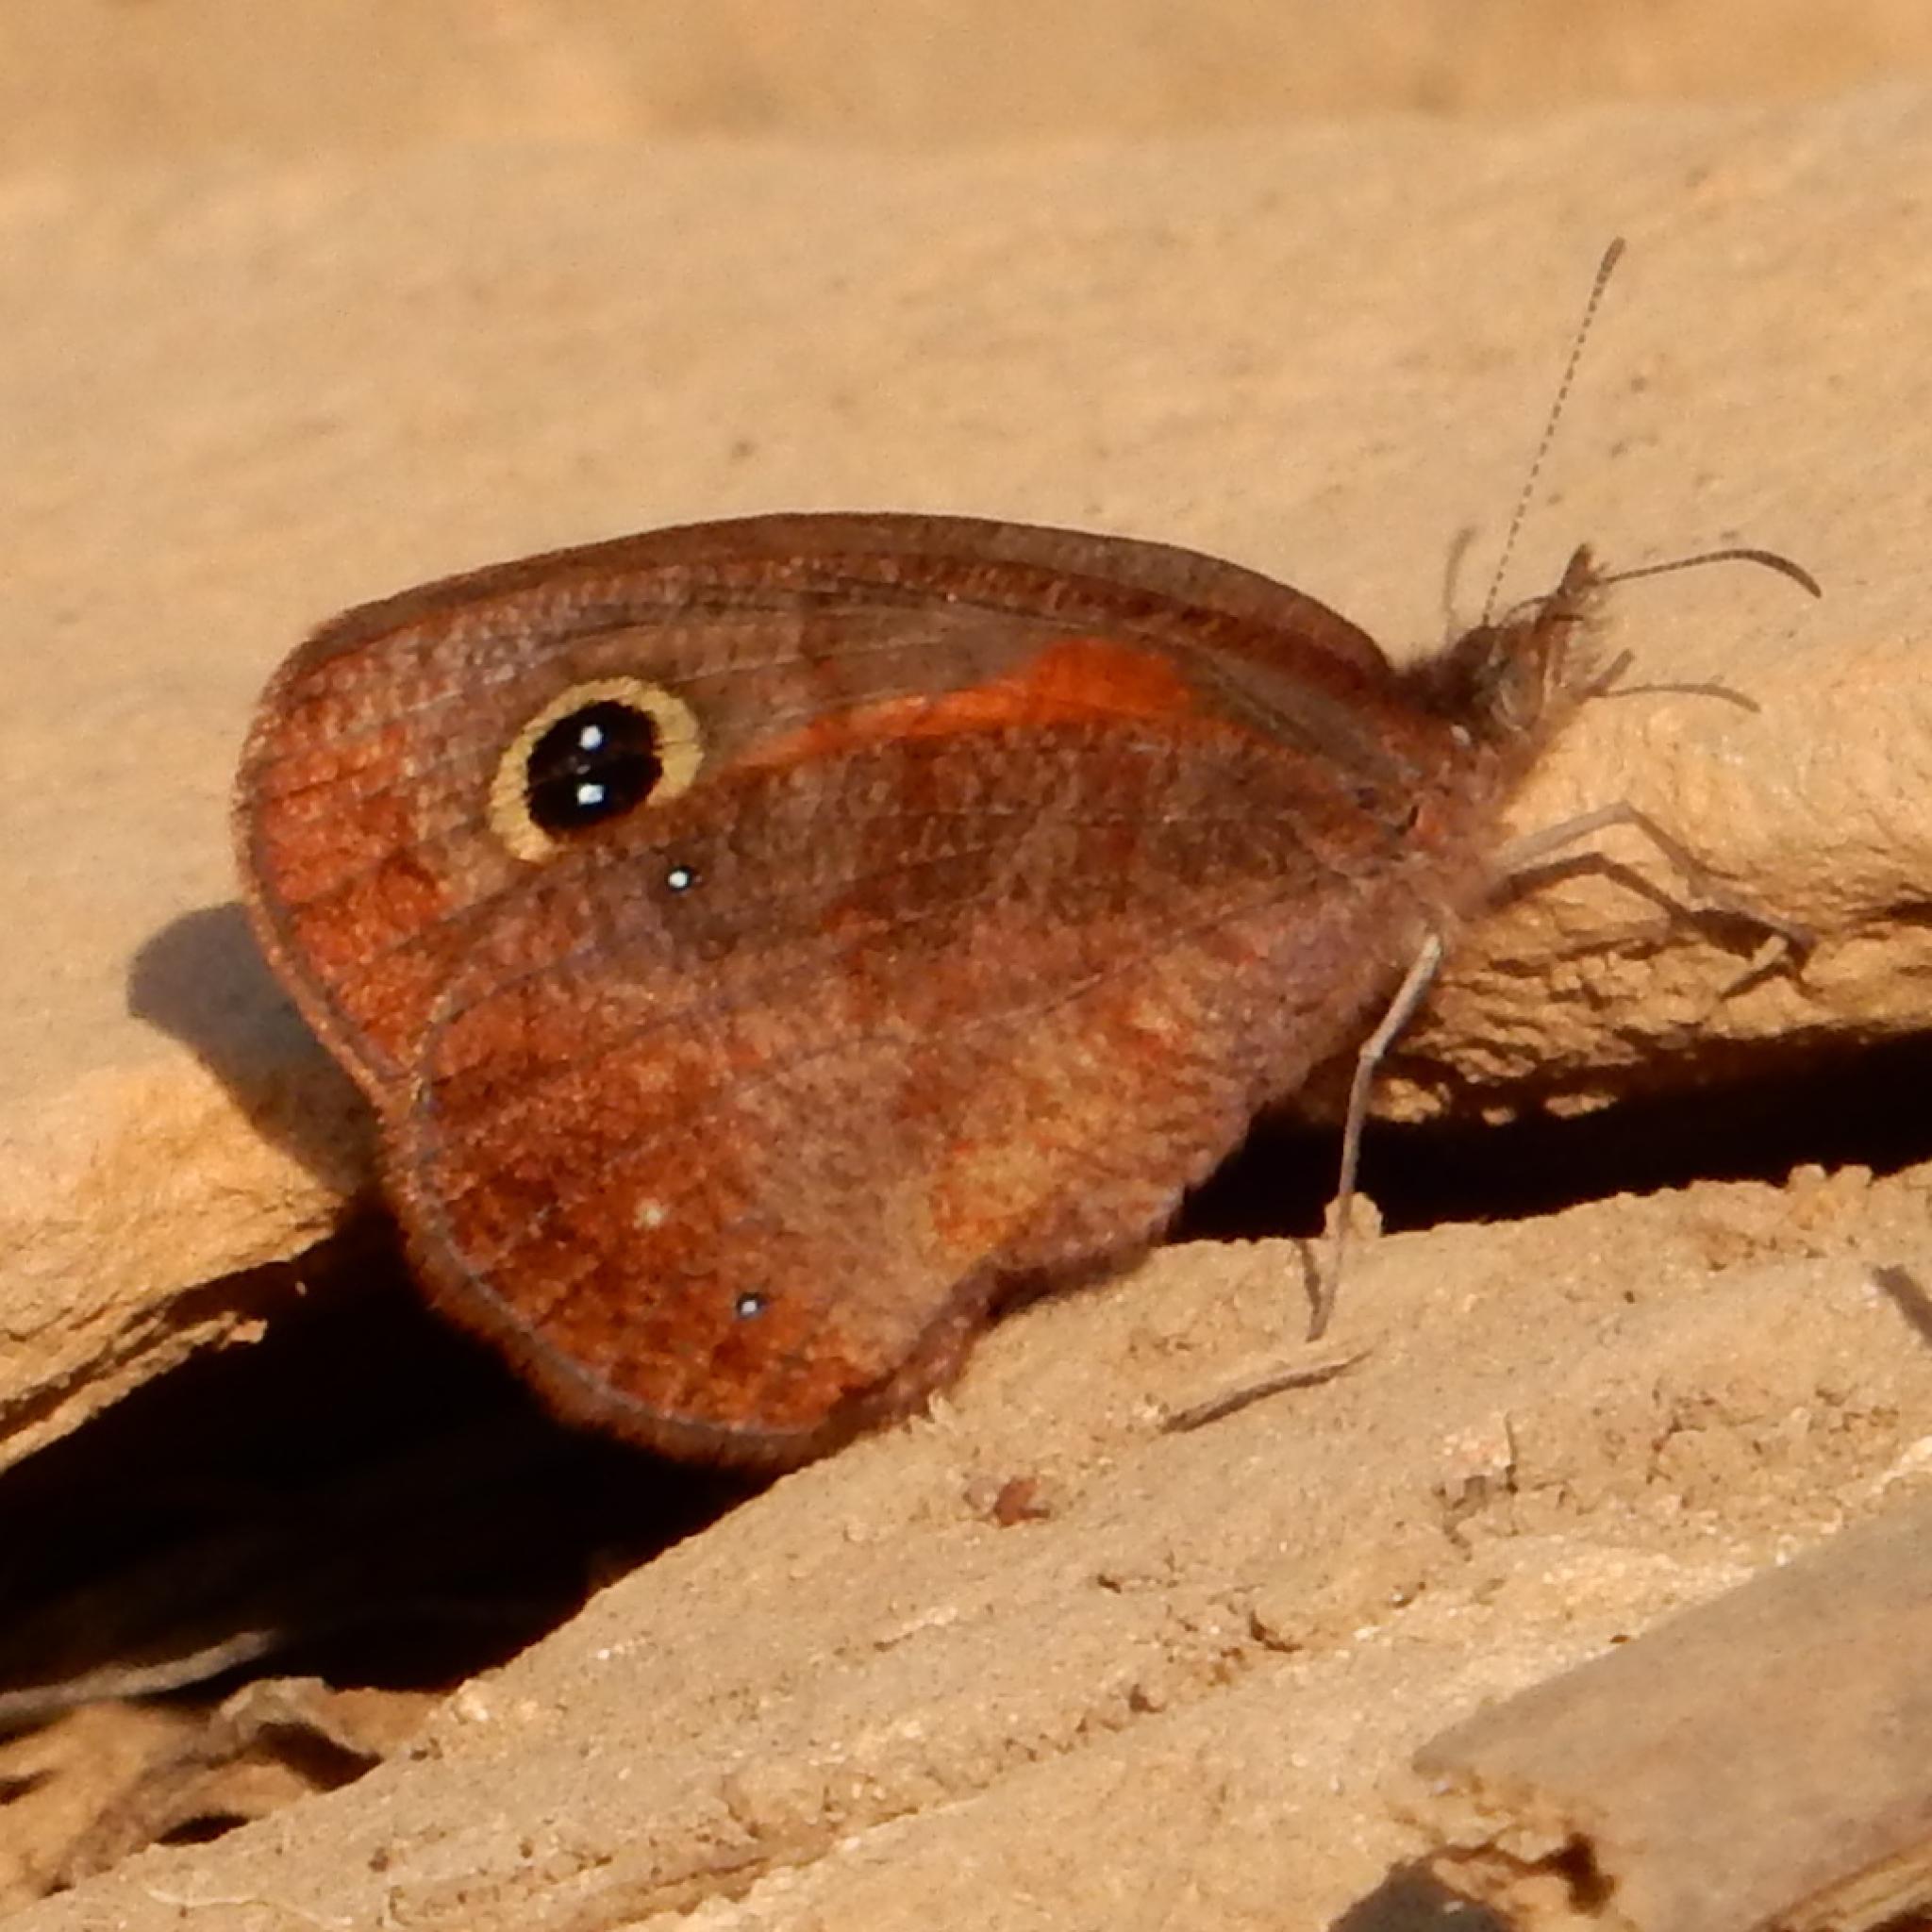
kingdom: Animalia
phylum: Arthropoda
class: Insecta
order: Lepidoptera
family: Nymphalidae
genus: Cassionympha
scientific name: Cassionympha cassius
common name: Rainforest brown
